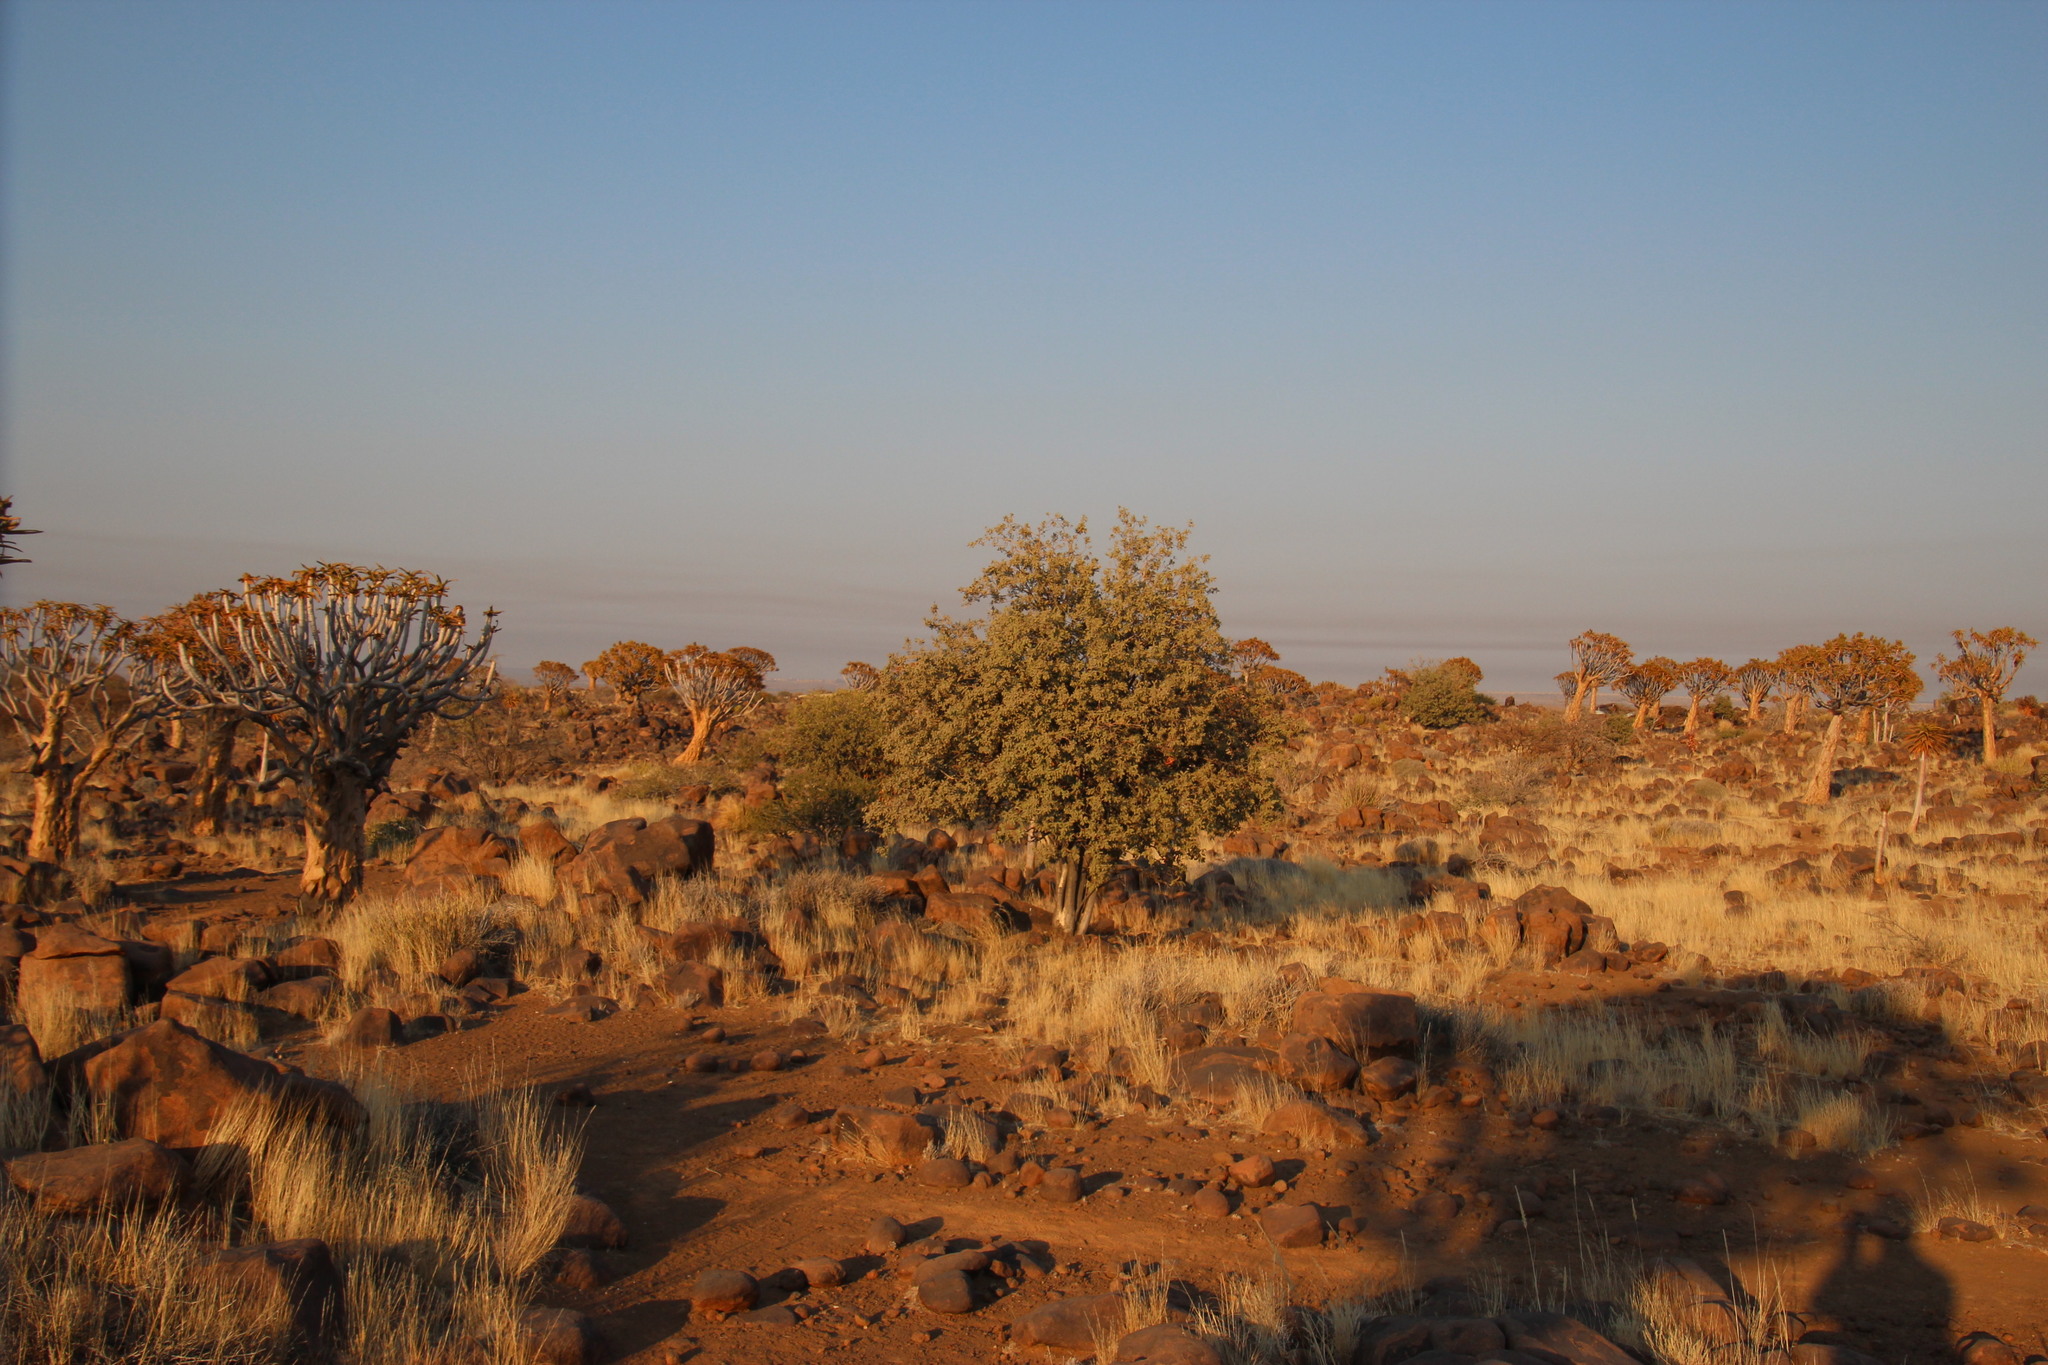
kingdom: Plantae
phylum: Tracheophyta
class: Magnoliopsida
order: Brassicales
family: Capparaceae
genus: Maerua
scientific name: Maerua schinzii
